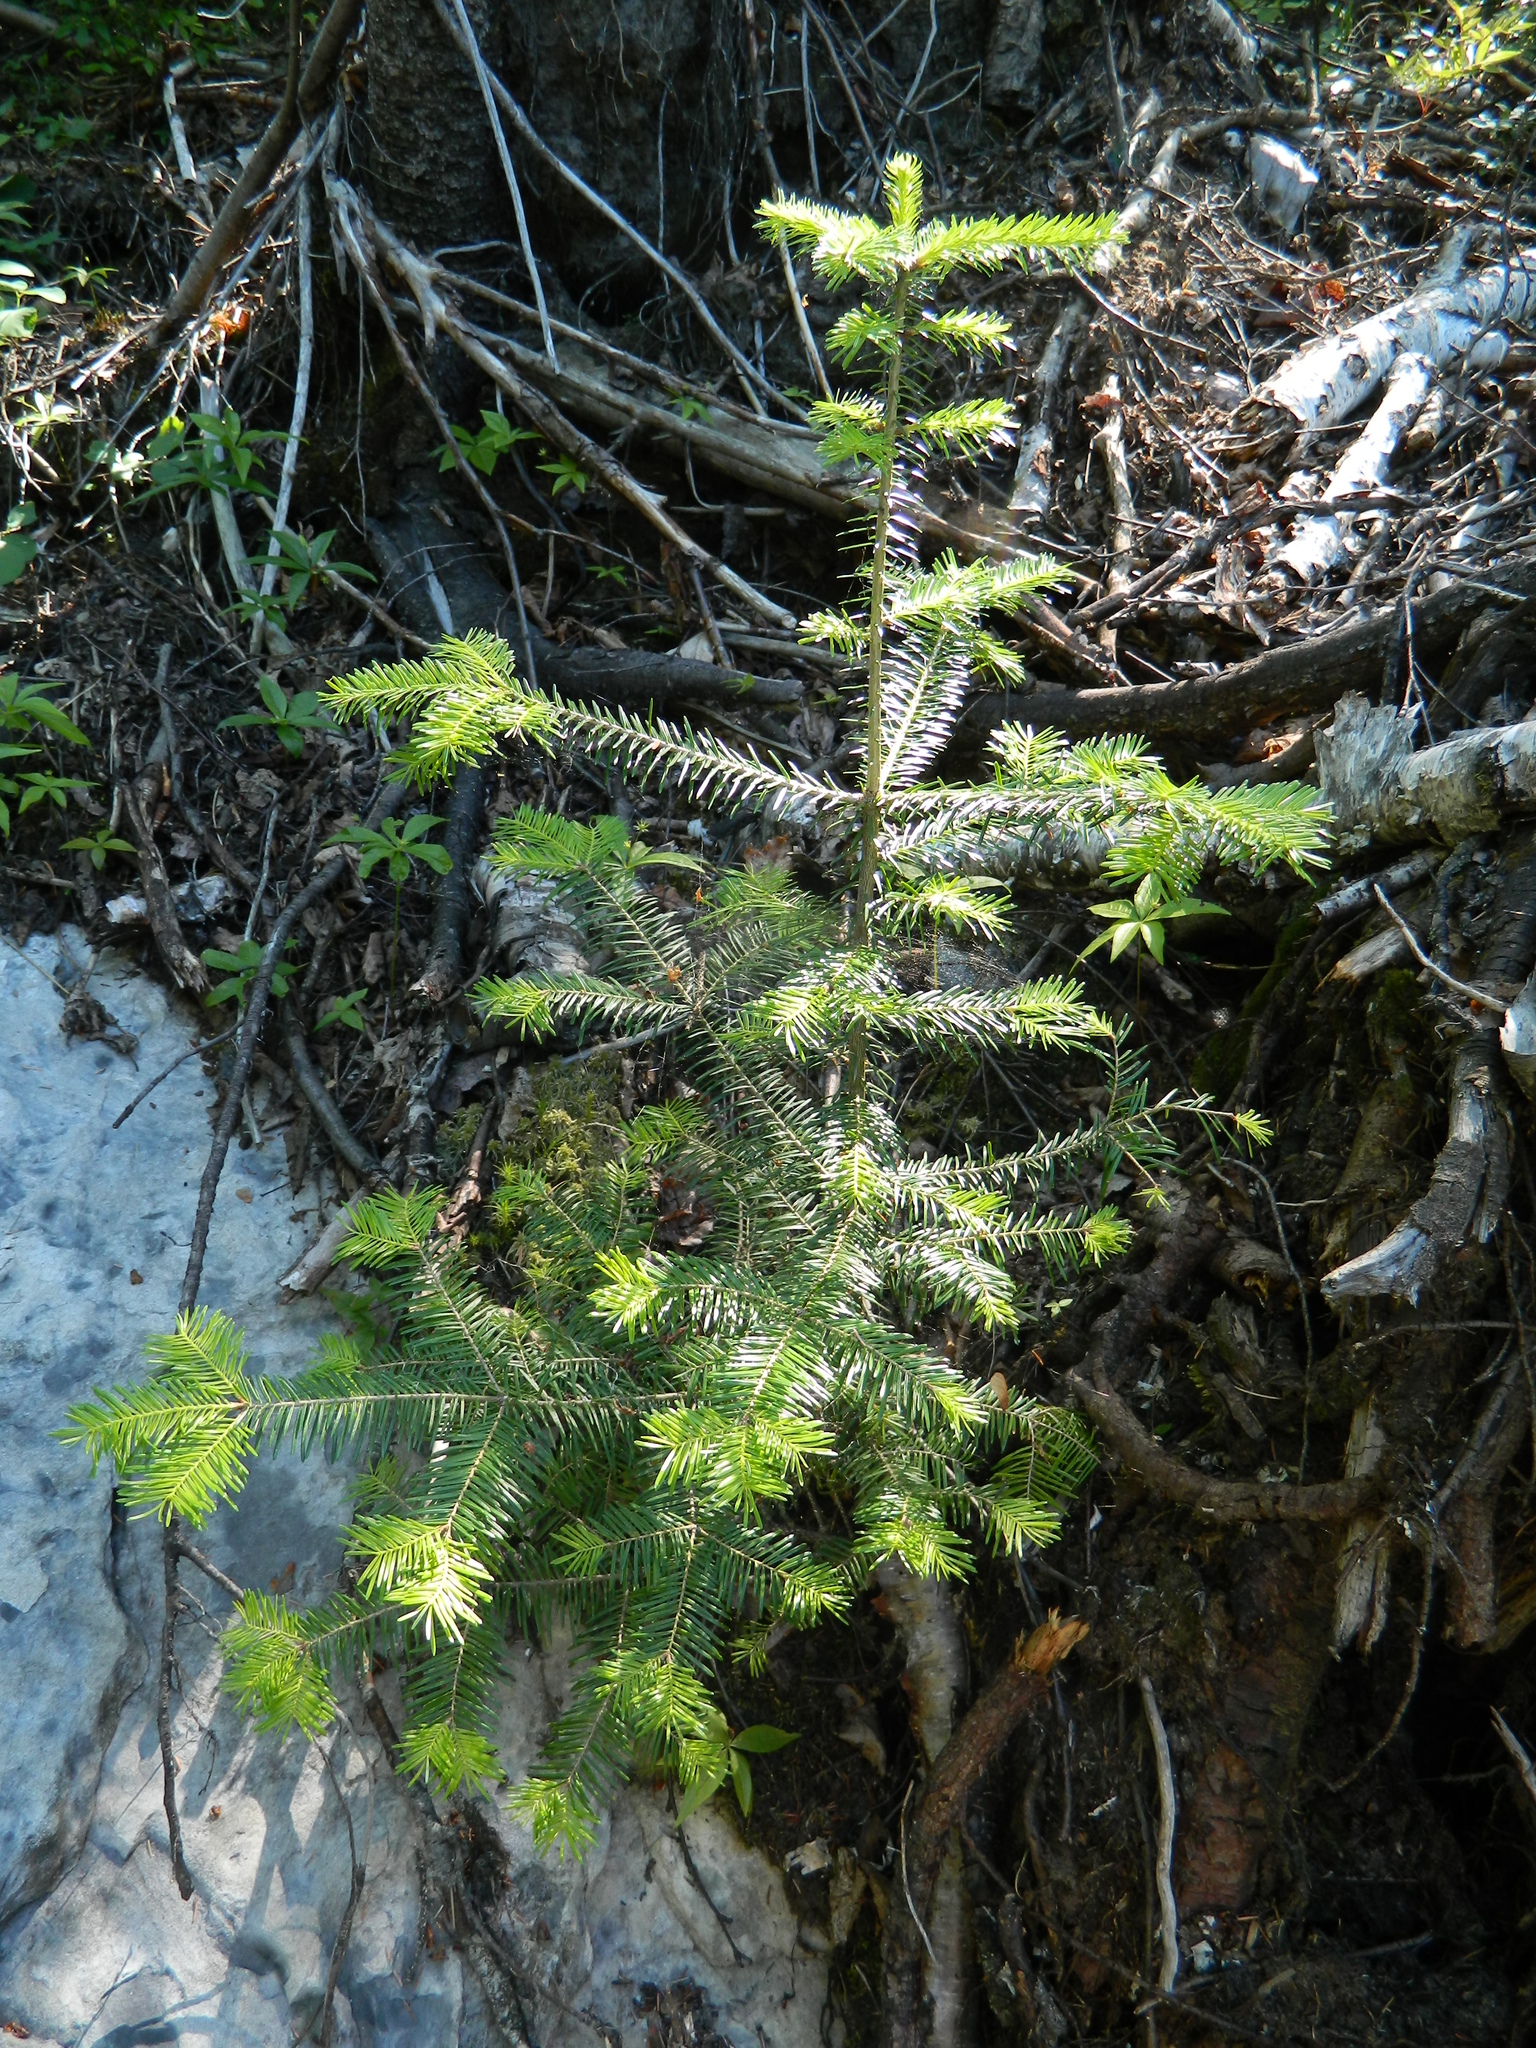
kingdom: Plantae
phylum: Tracheophyta
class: Pinopsida
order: Pinales
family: Pinaceae
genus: Abies
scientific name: Abies balsamea
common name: Balsam fir
